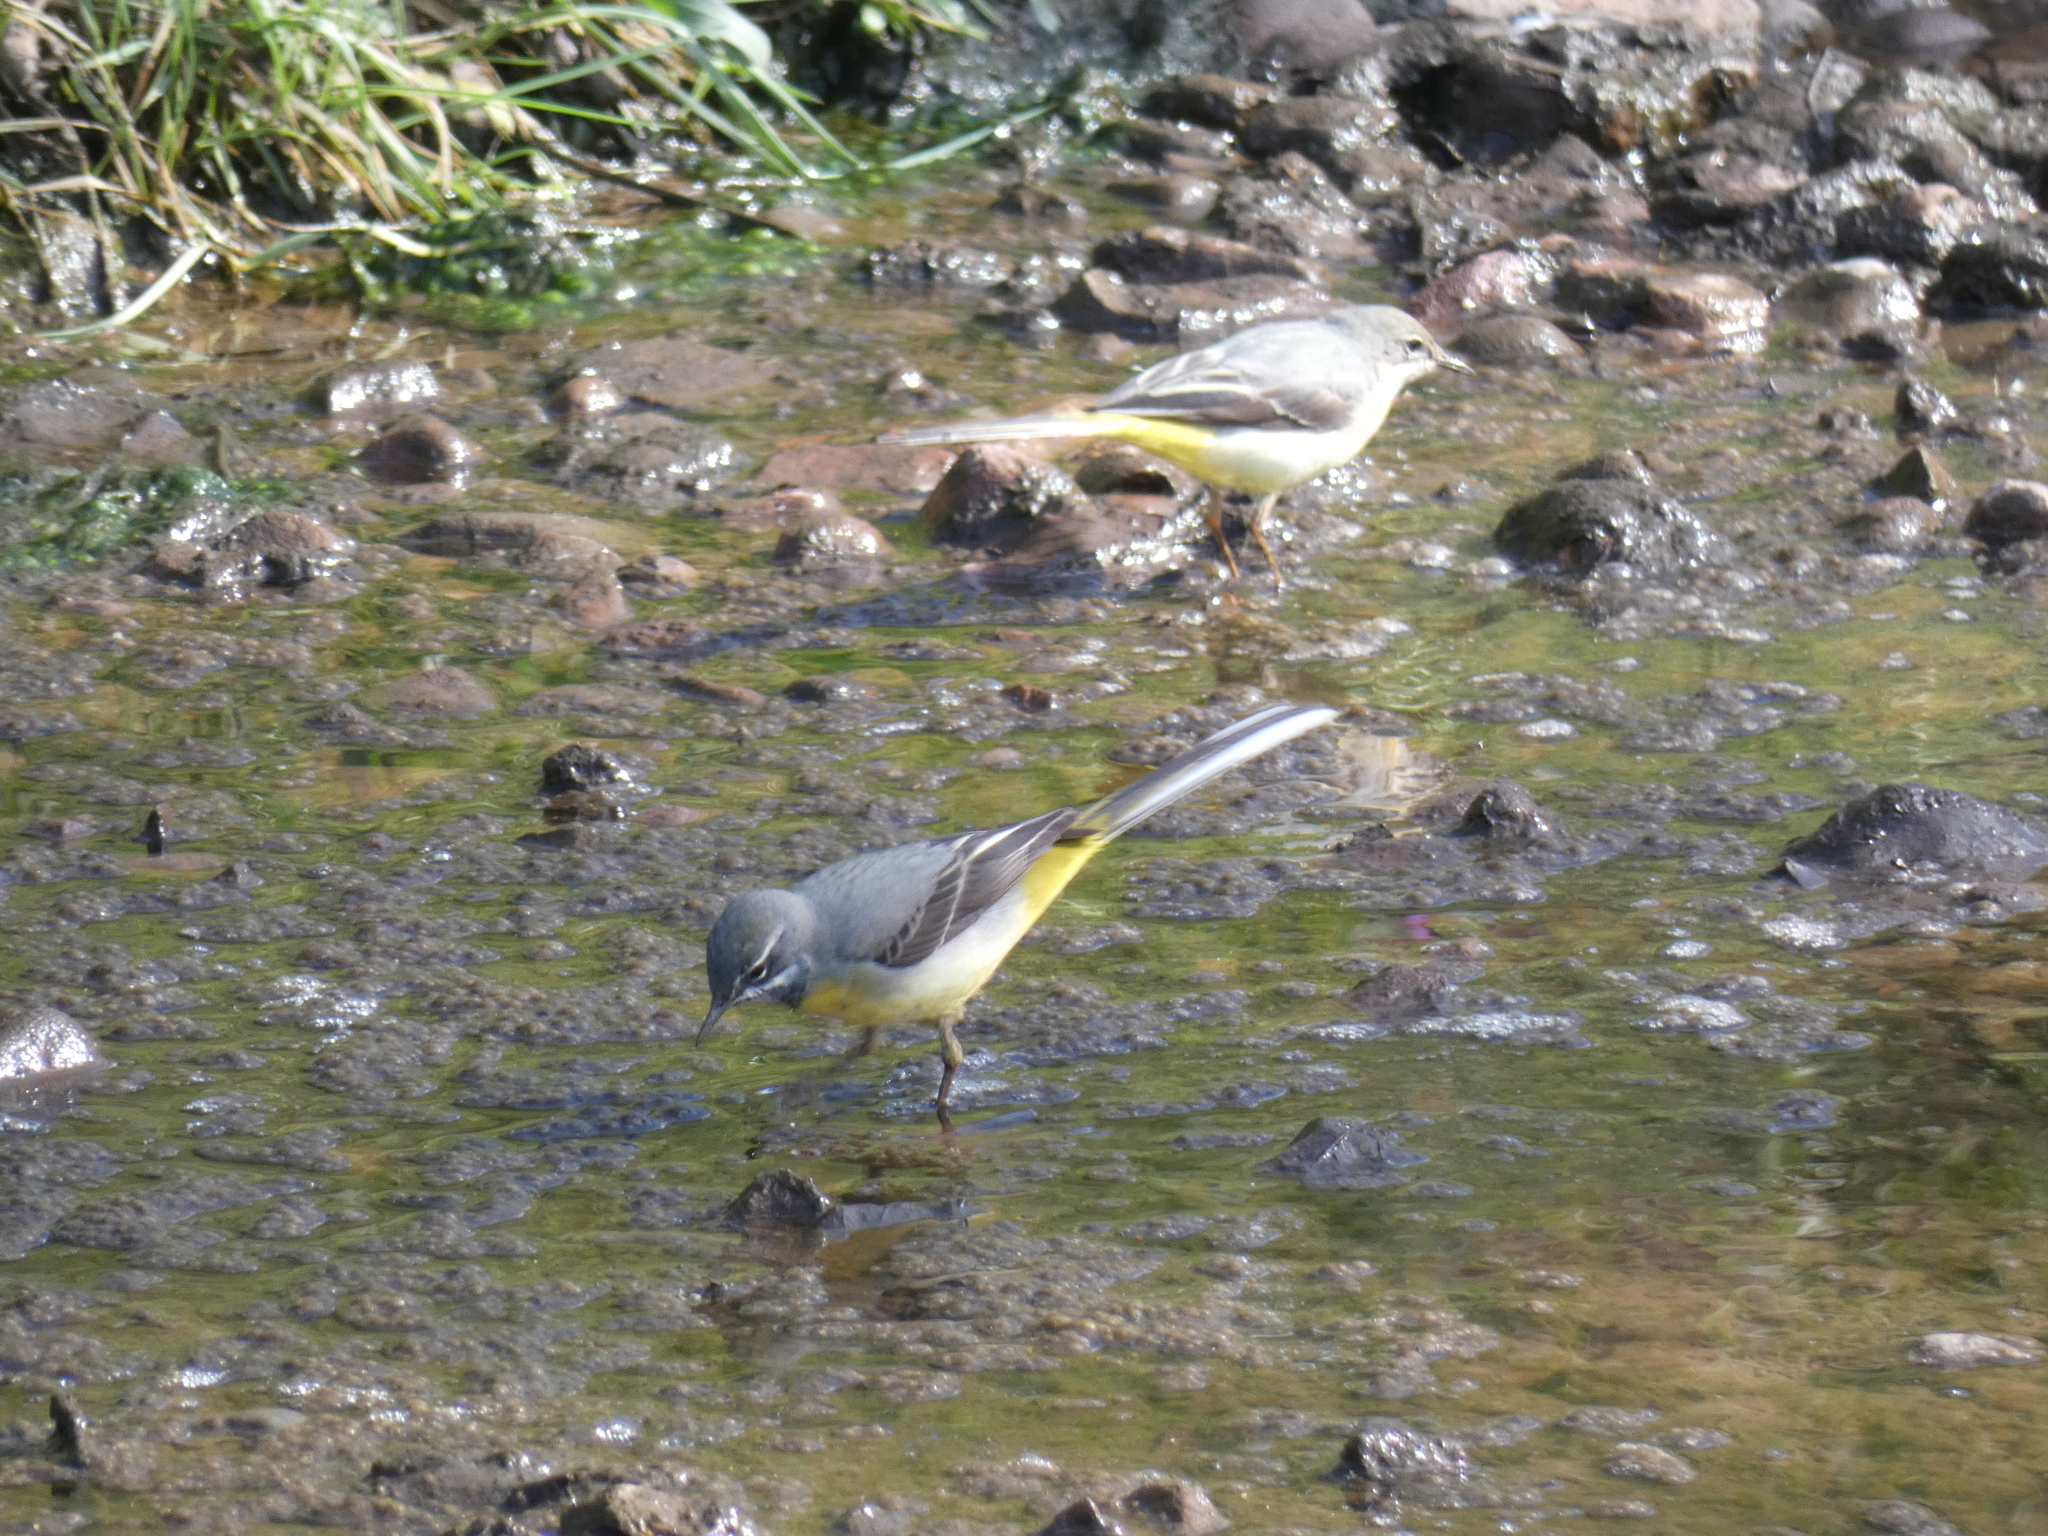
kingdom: Animalia
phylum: Chordata
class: Aves
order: Passeriformes
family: Motacillidae
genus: Motacilla
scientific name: Motacilla cinerea
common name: Grey wagtail
